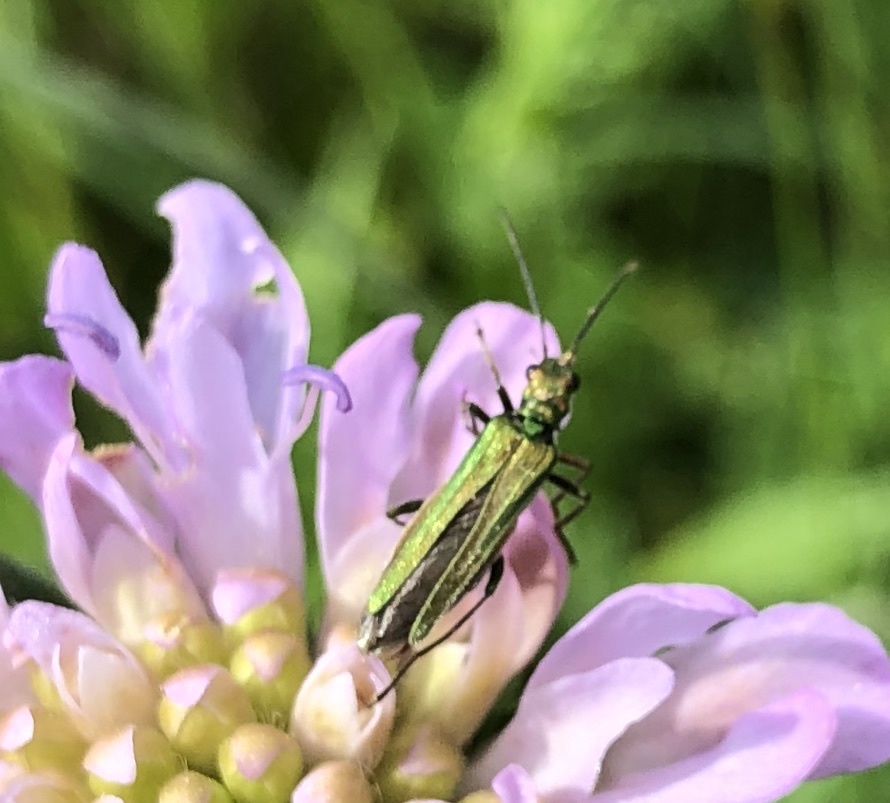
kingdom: Animalia
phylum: Arthropoda
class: Insecta
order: Coleoptera
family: Oedemeridae
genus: Oedemera
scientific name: Oedemera nobilis
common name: Swollen-thighed beetle
